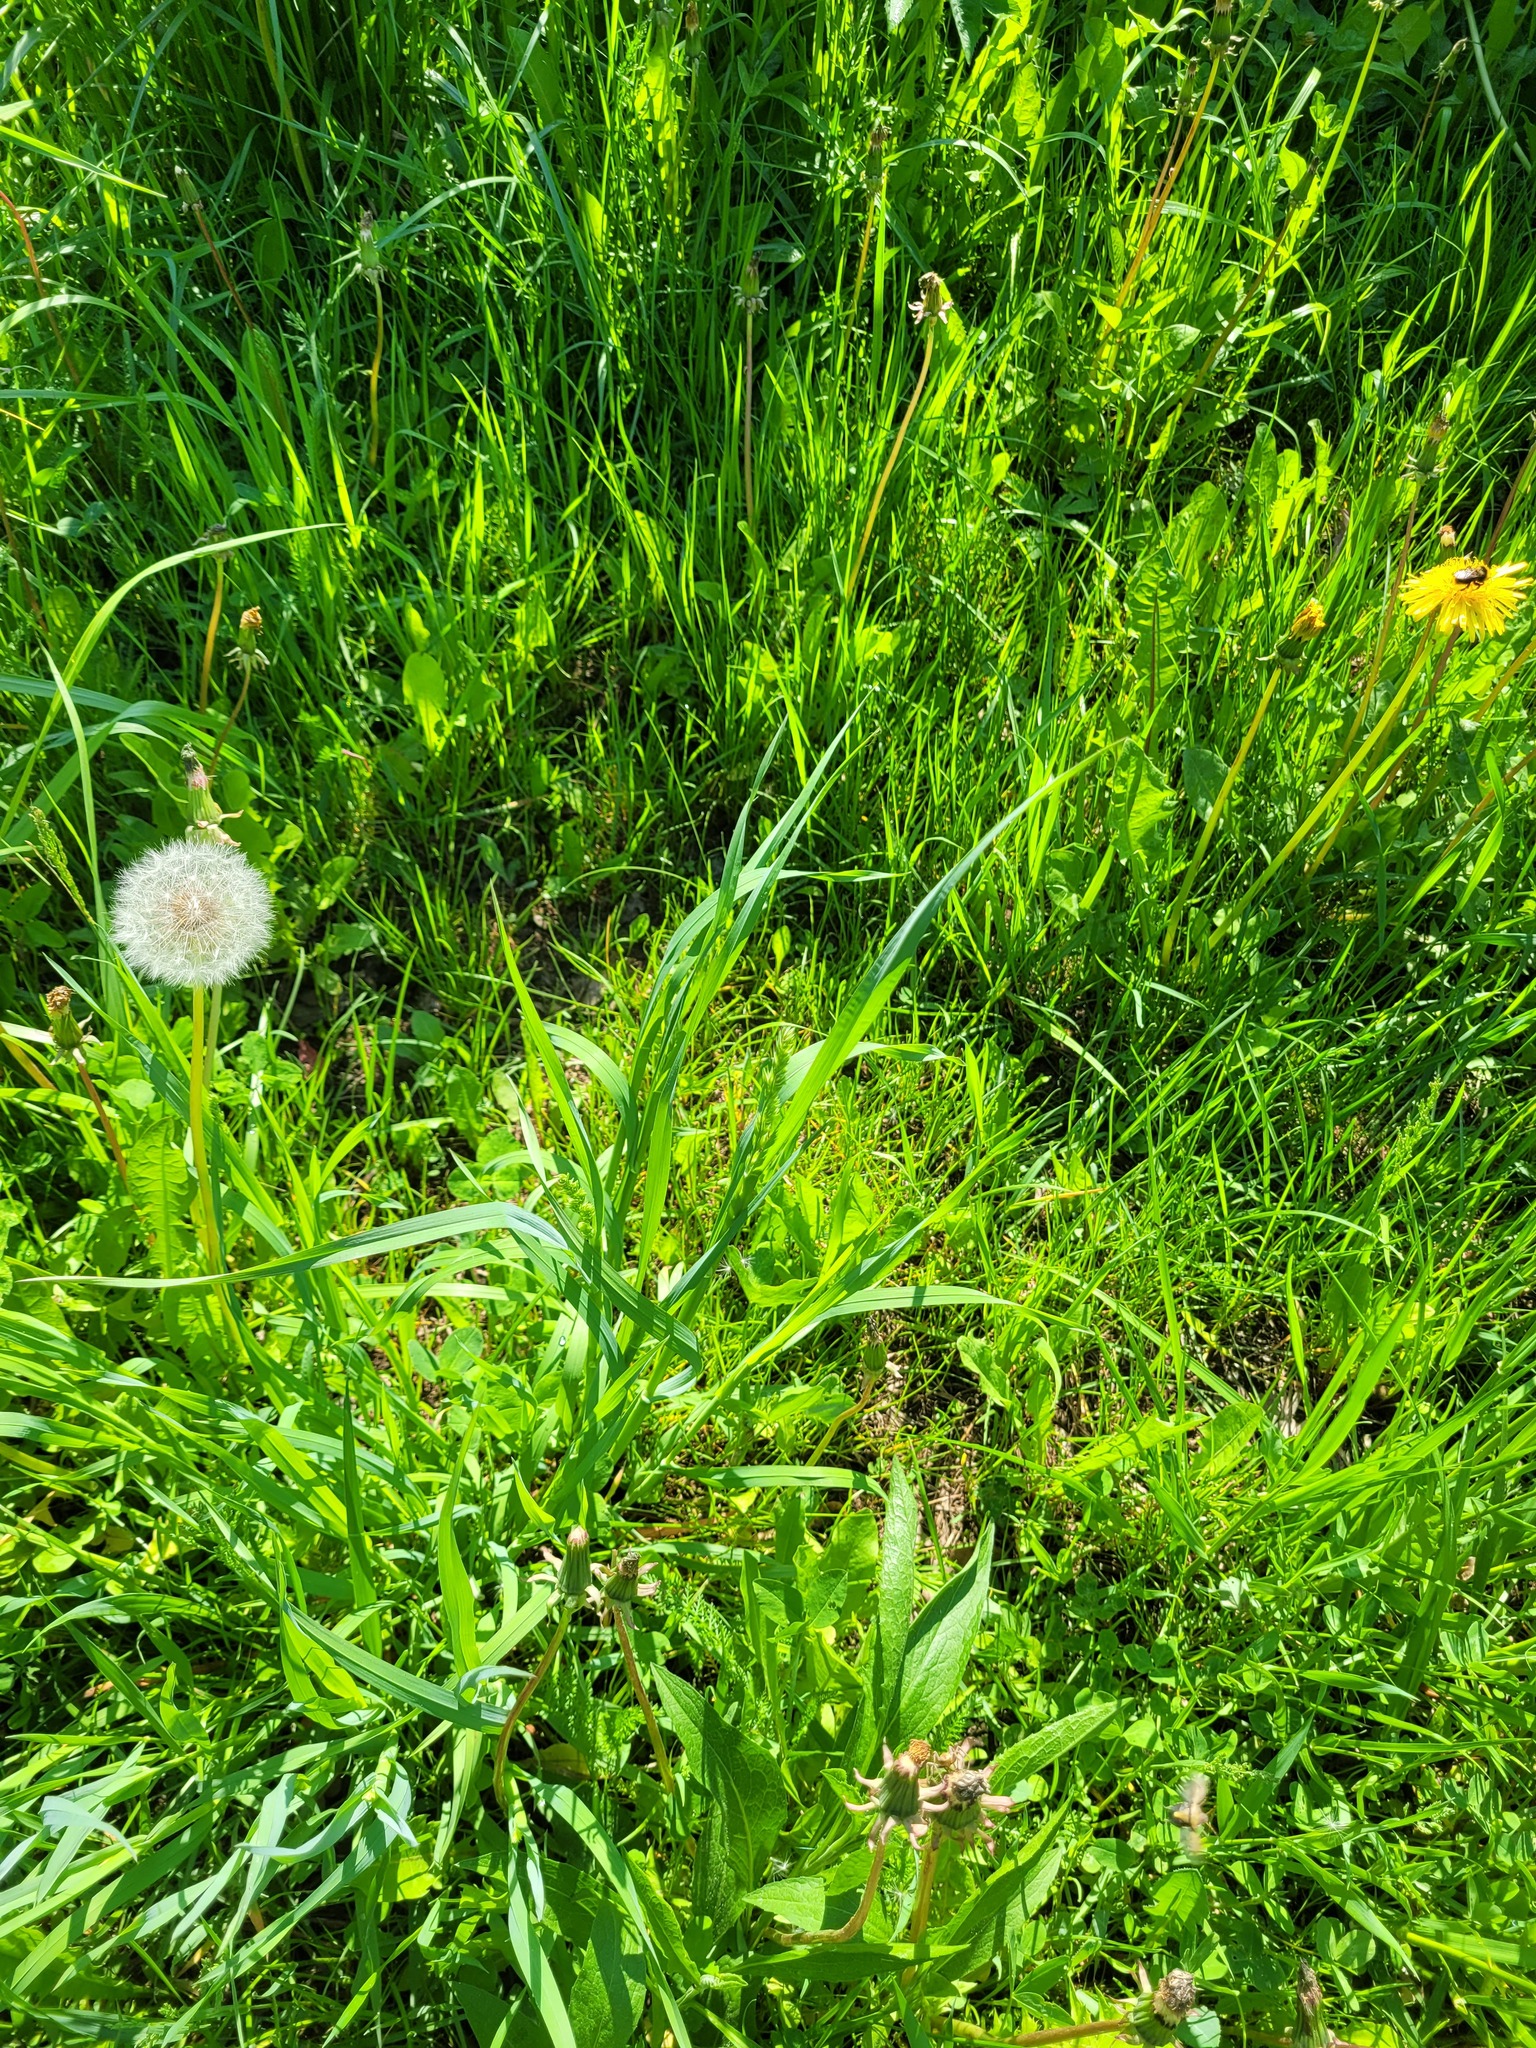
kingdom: Plantae
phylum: Tracheophyta
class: Liliopsida
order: Poales
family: Poaceae
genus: Dactylis
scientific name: Dactylis glomerata
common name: Orchardgrass
